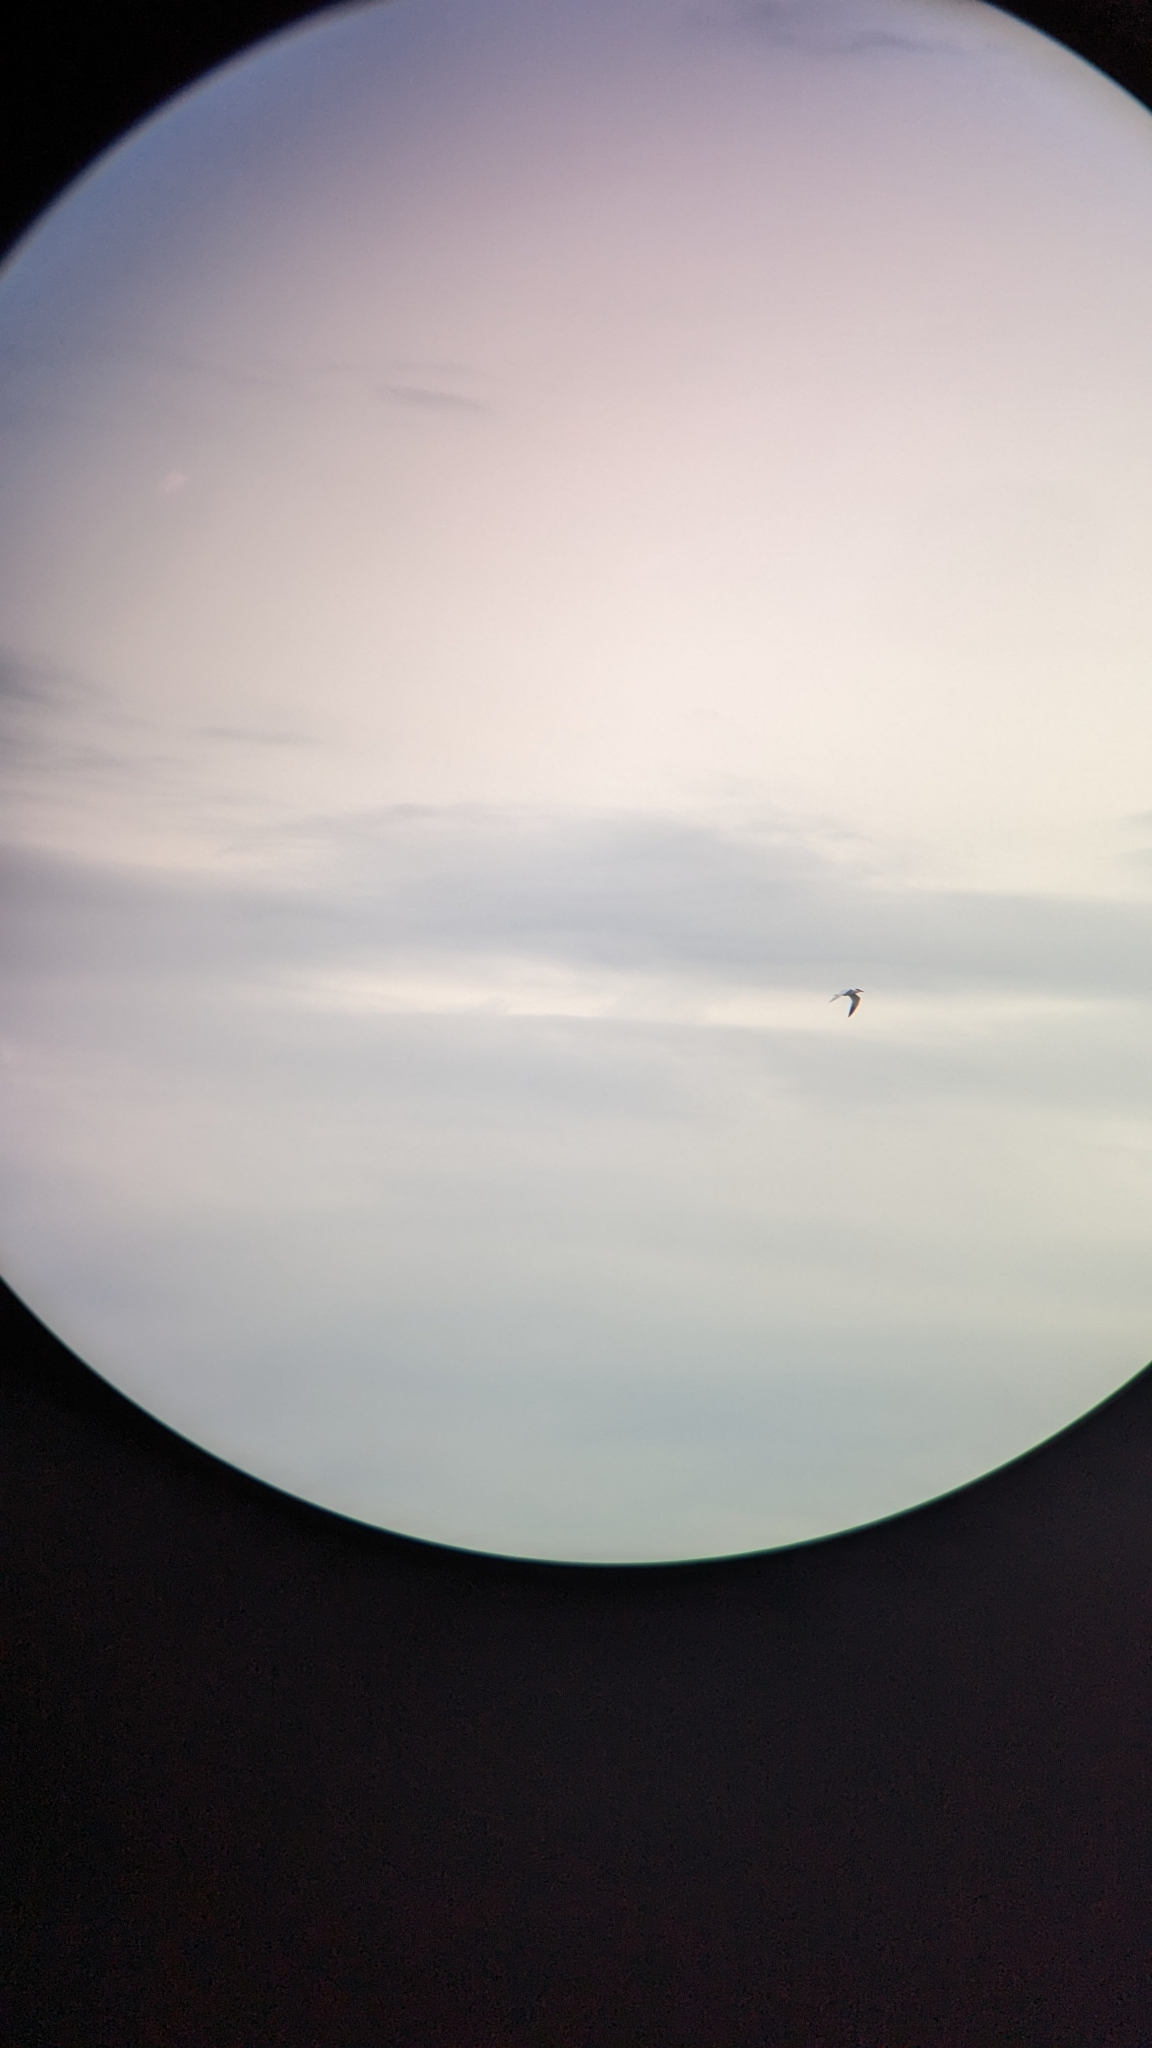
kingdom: Animalia
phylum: Chordata
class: Aves
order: Charadriiformes
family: Laridae
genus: Hydroprogne
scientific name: Hydroprogne caspia
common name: Caspian tern
